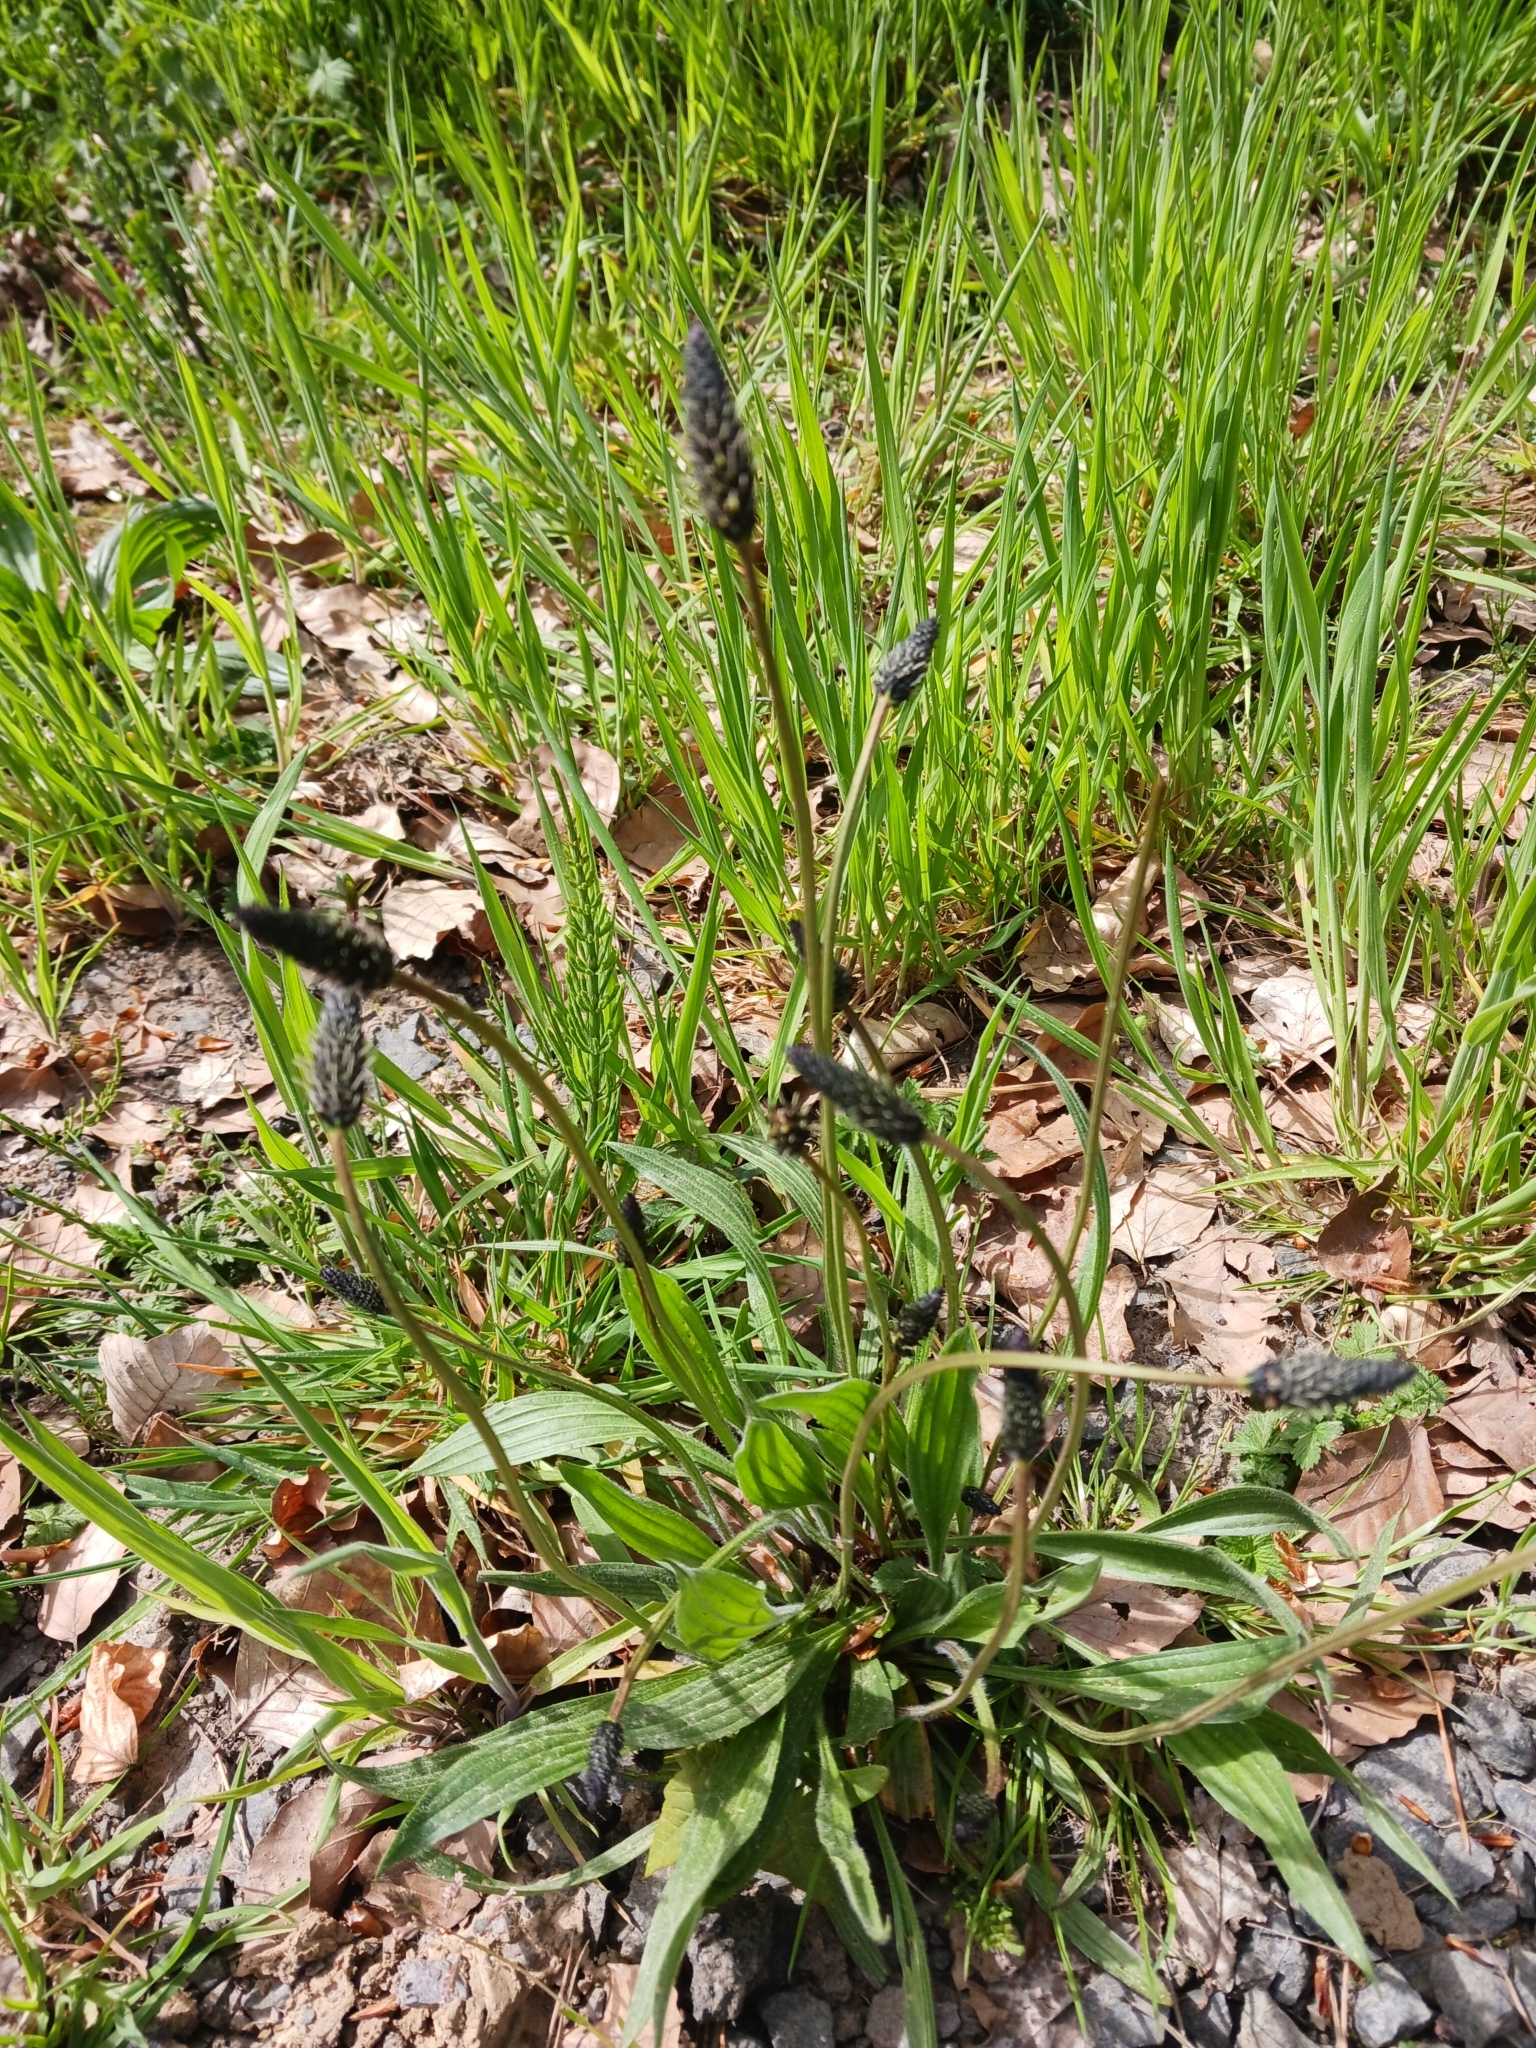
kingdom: Plantae
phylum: Tracheophyta
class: Magnoliopsida
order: Lamiales
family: Plantaginaceae
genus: Plantago
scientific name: Plantago lanceolata
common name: Ribwort plantain
